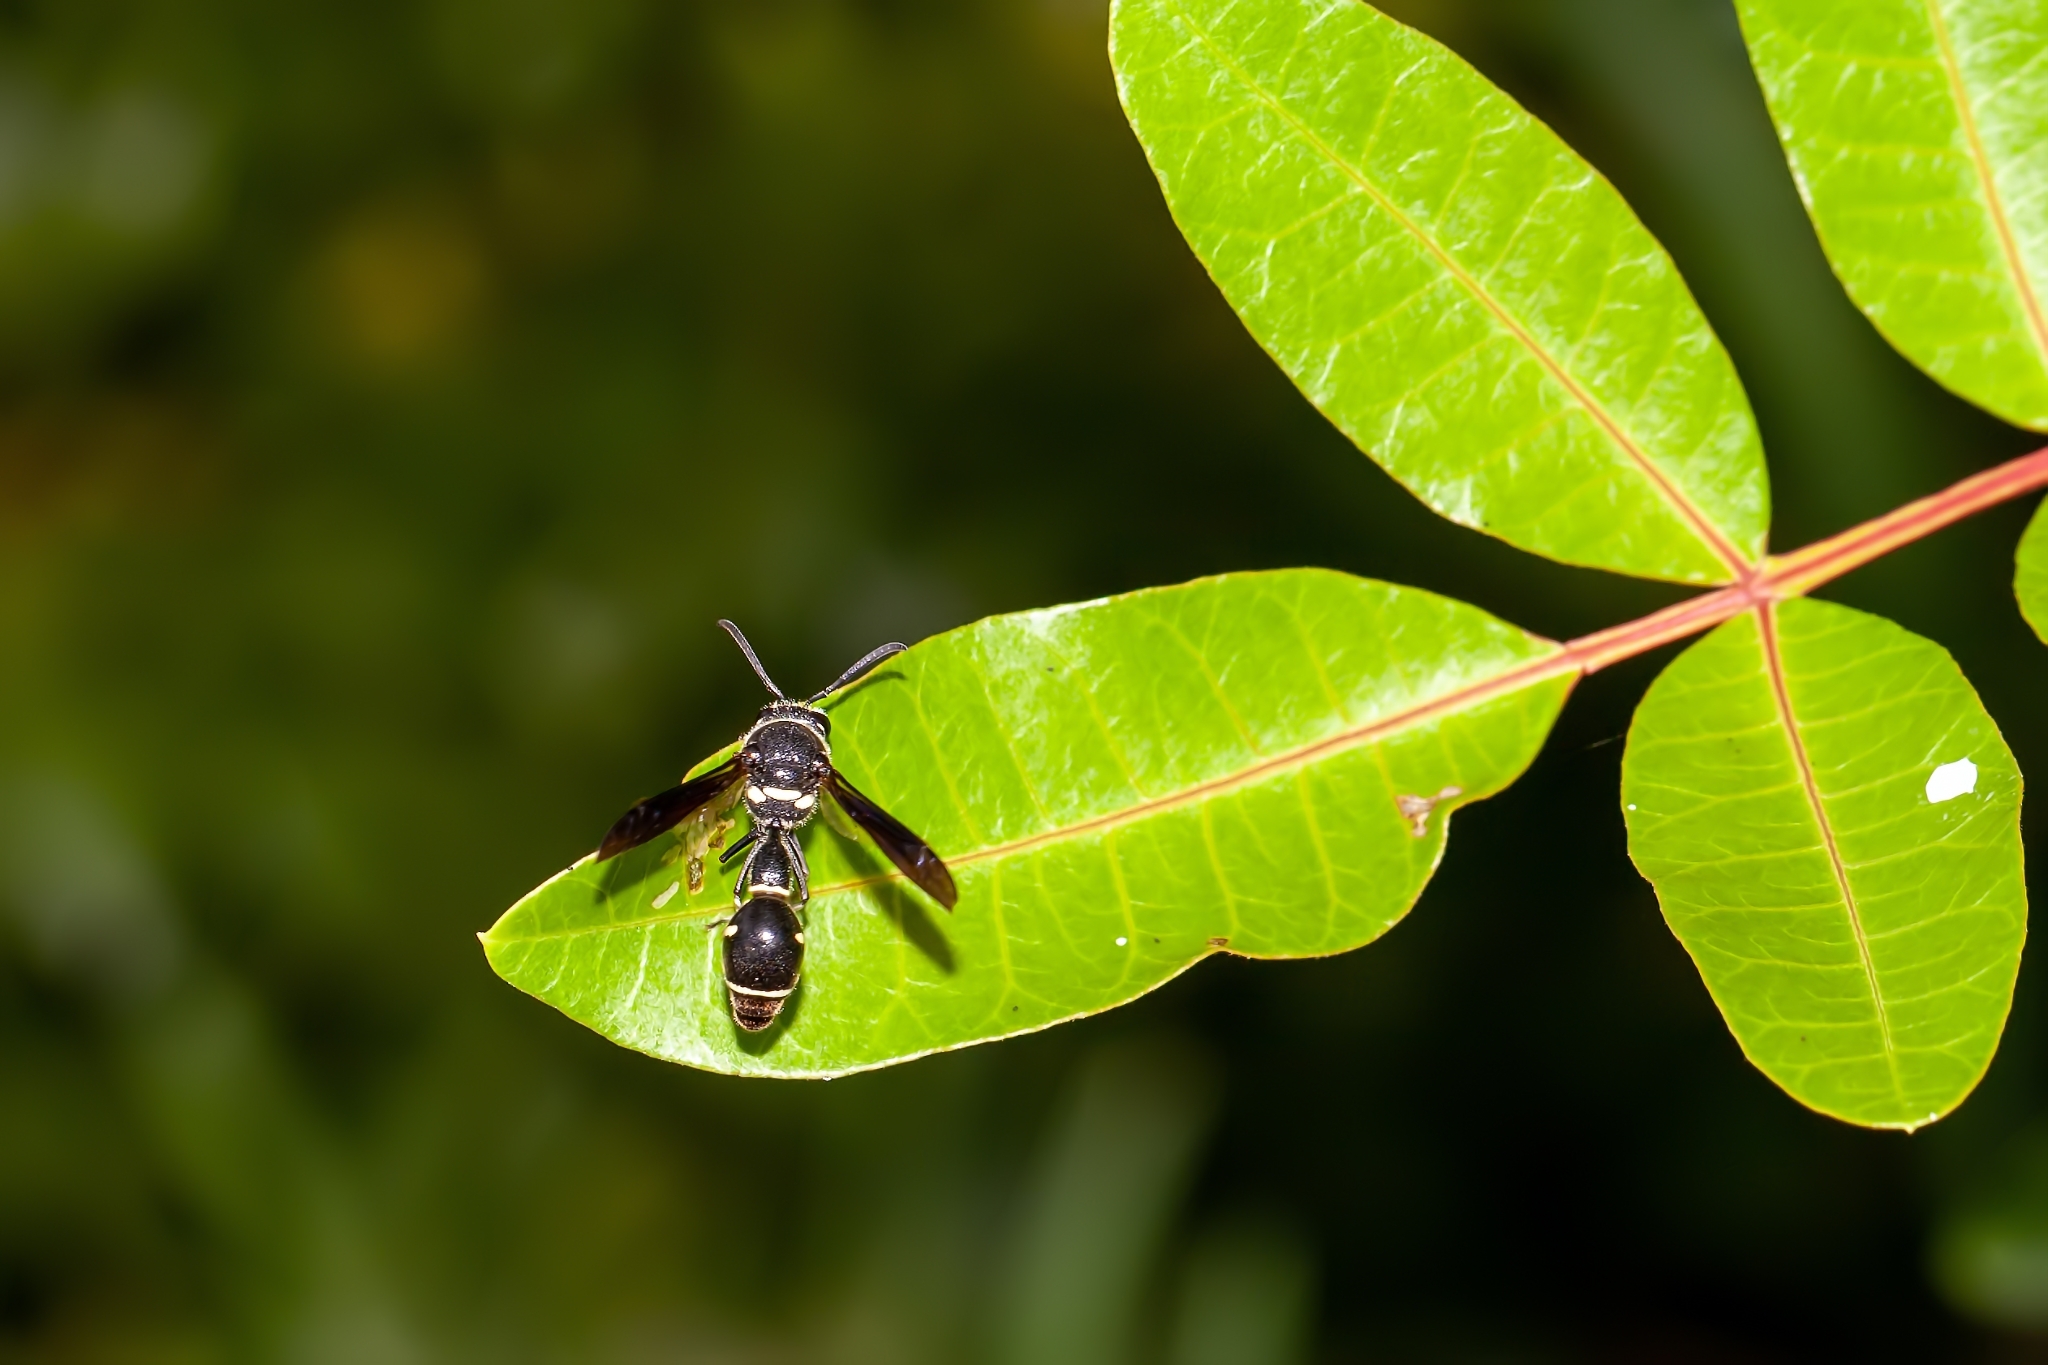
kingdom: Animalia
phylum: Arthropoda
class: Insecta
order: Hymenoptera
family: Vespidae
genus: Eumenes
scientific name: Eumenes fraternus
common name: Fraternal potter wasp
